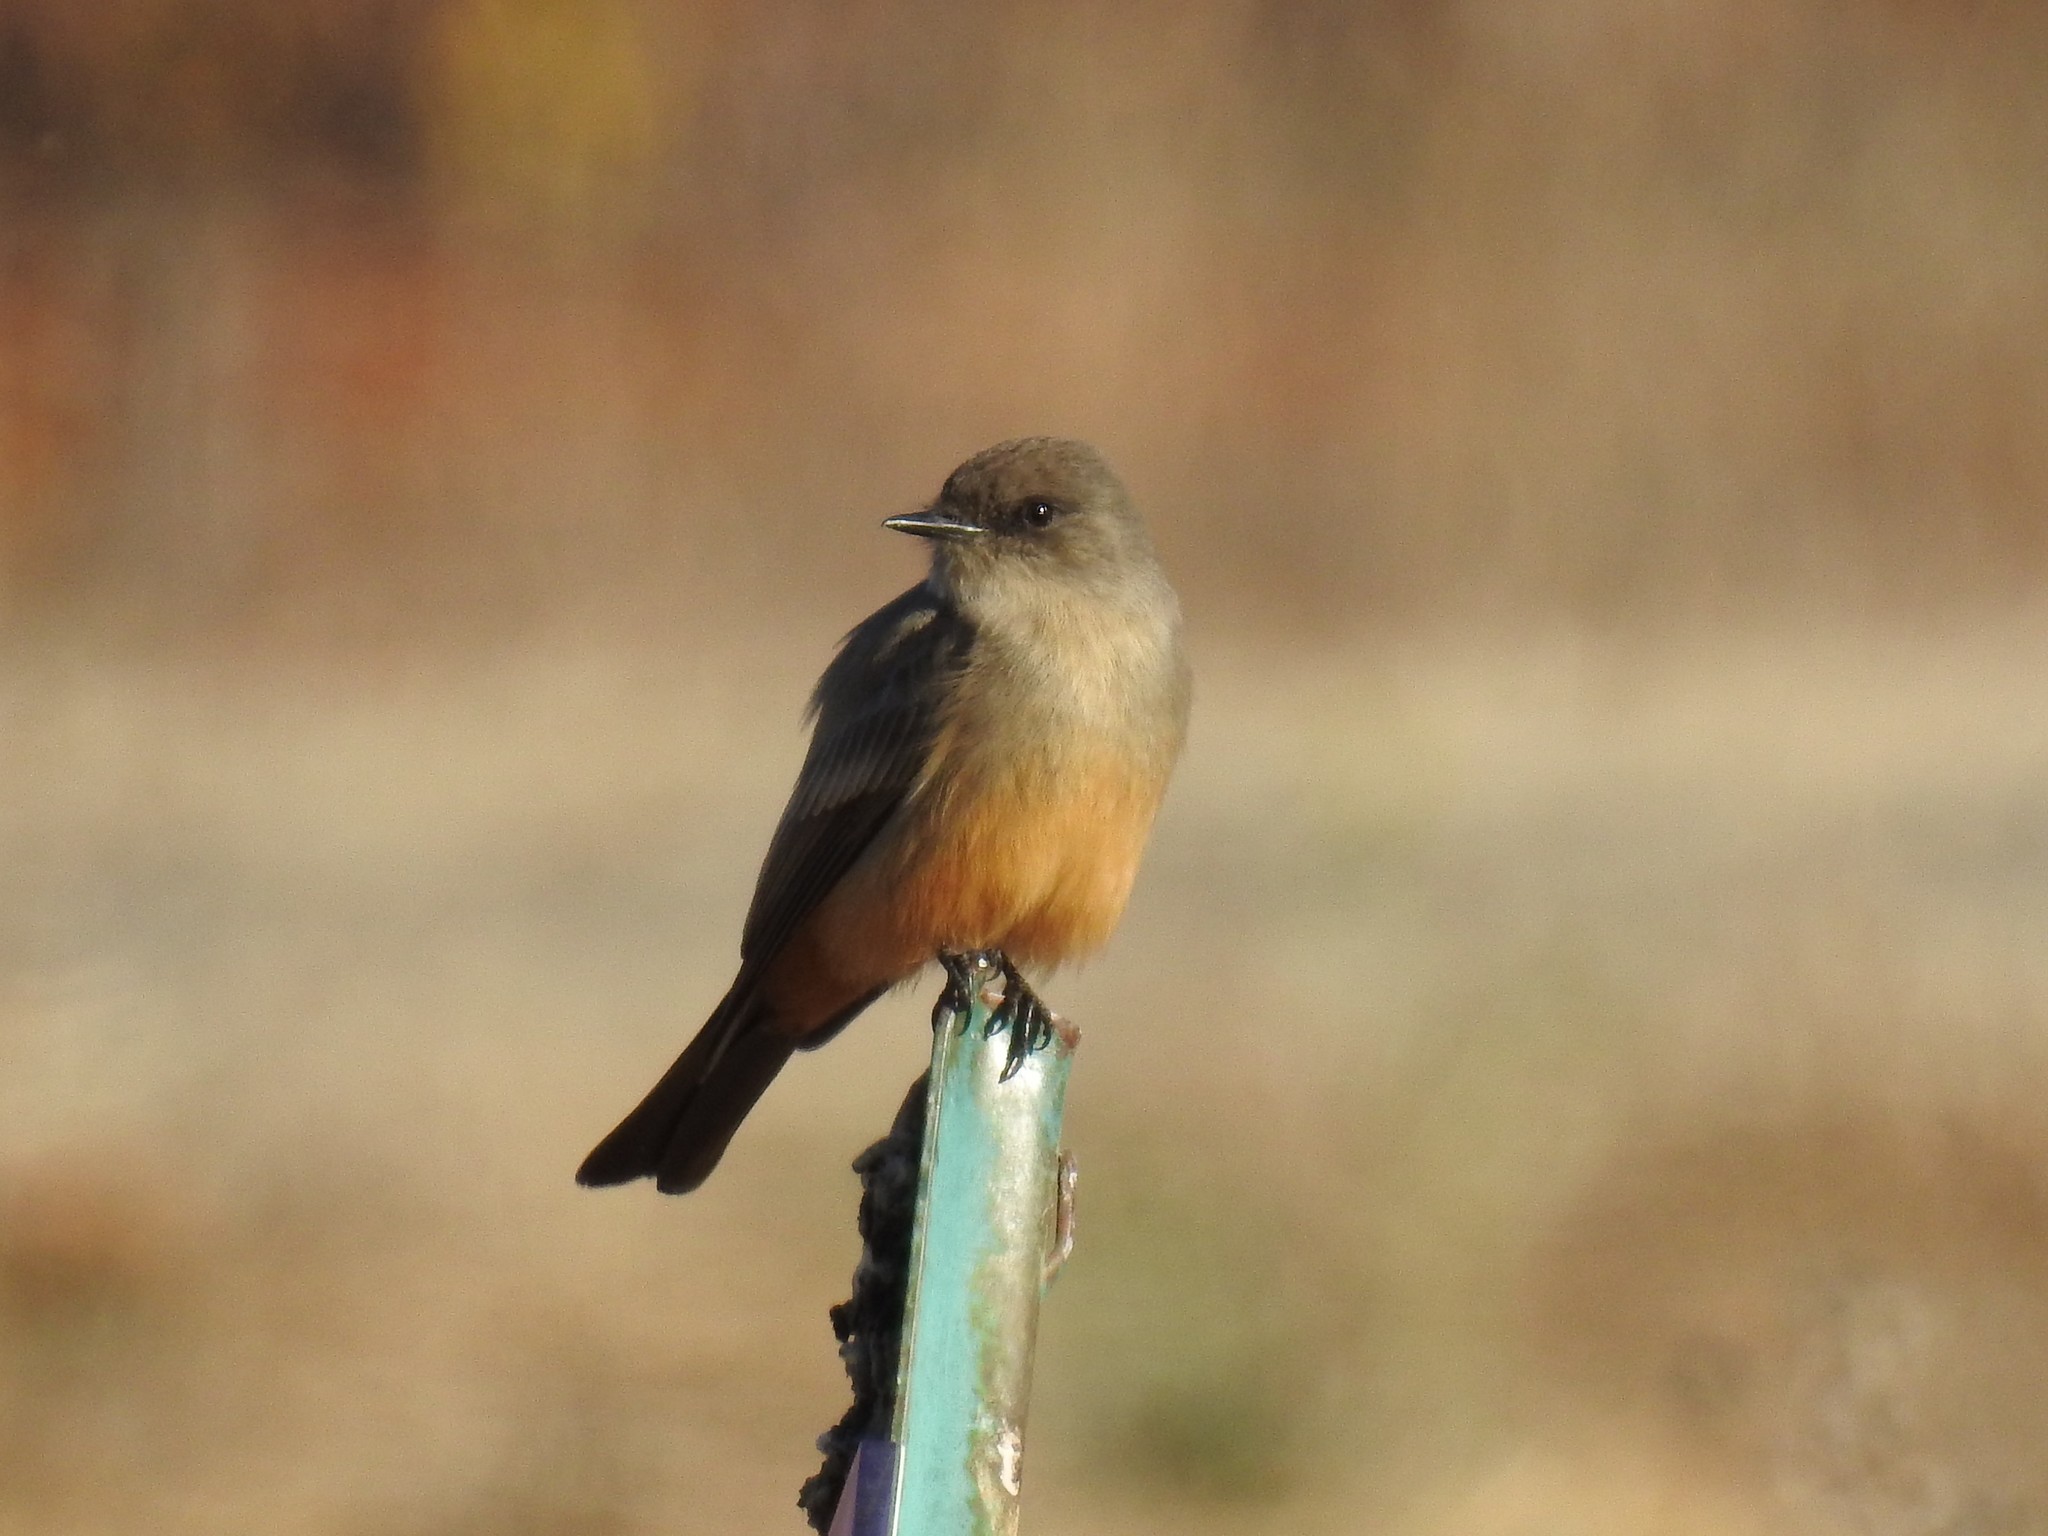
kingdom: Animalia
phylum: Chordata
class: Aves
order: Passeriformes
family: Tyrannidae
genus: Sayornis
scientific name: Sayornis saya
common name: Say's phoebe
